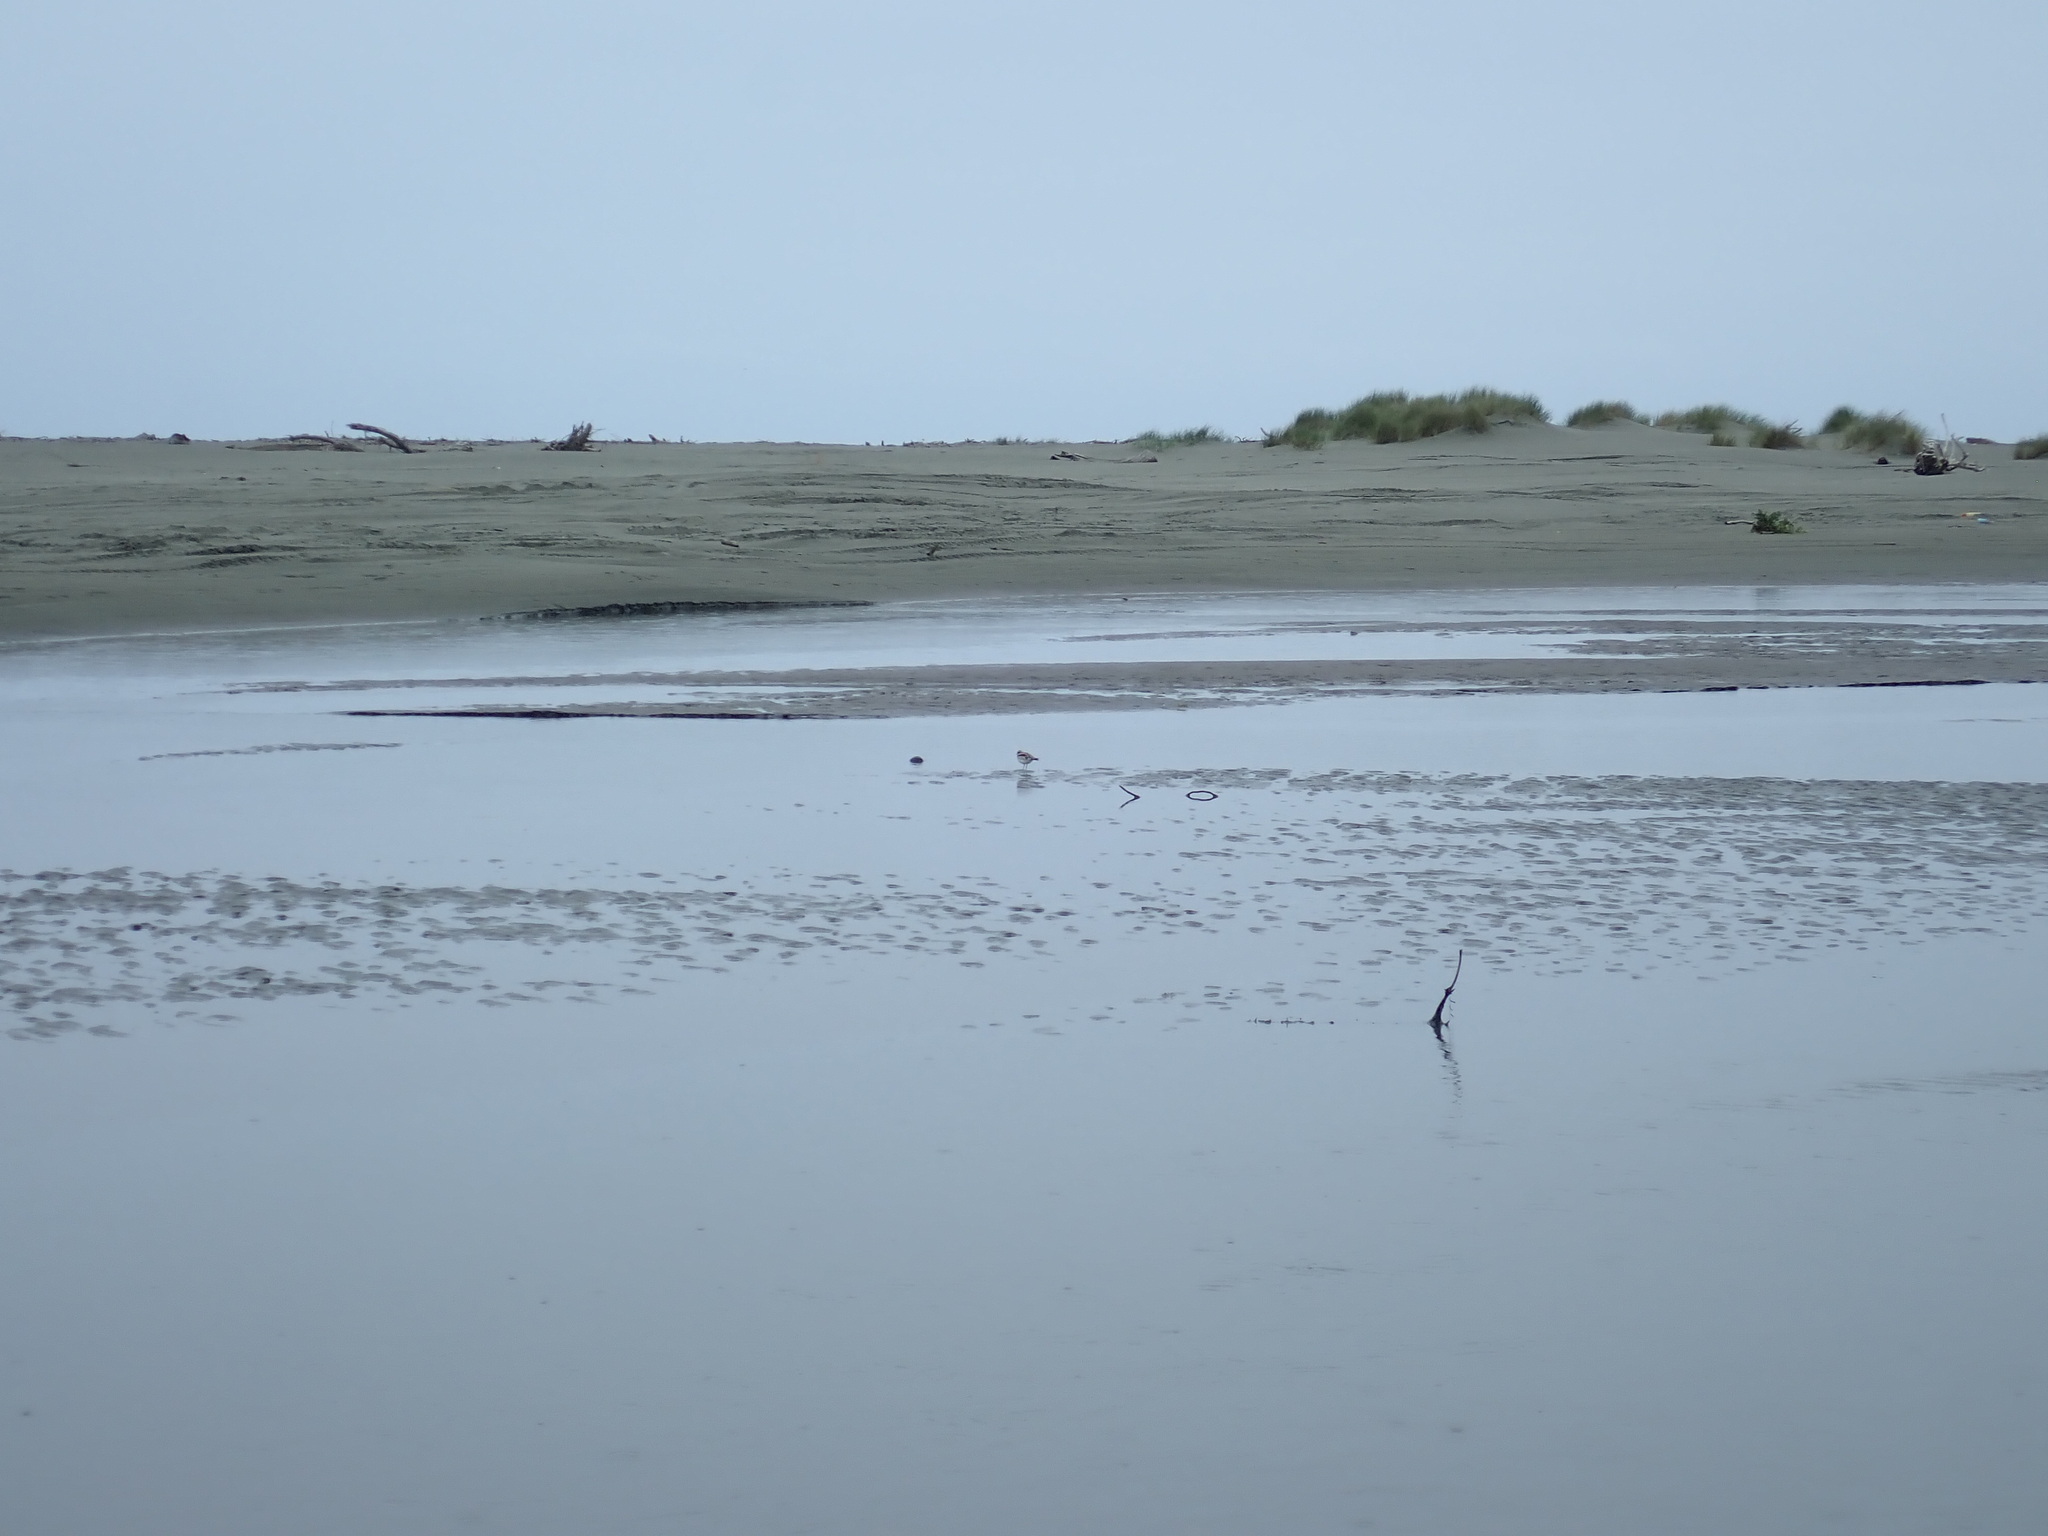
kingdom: Animalia
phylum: Chordata
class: Aves
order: Charadriiformes
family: Charadriidae
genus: Elseyornis
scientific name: Elseyornis melanops
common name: Black-fronted dotterel
